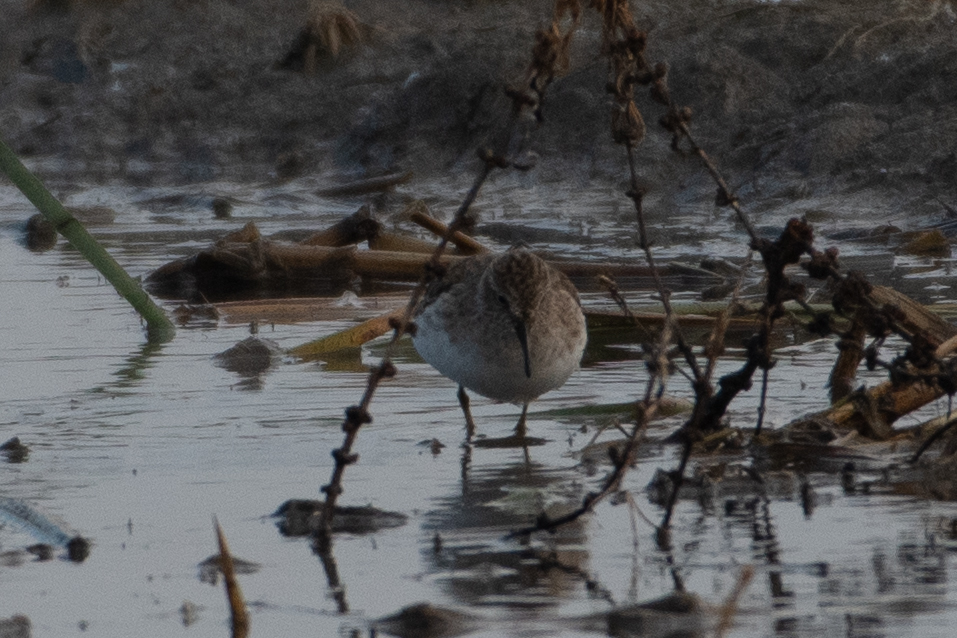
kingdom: Animalia
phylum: Chordata
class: Aves
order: Charadriiformes
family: Scolopacidae
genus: Calidris
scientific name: Calidris minutilla
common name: Least sandpiper
